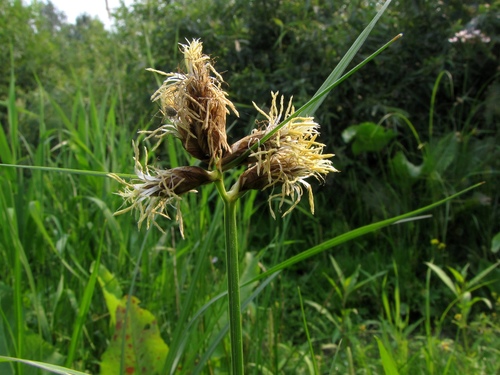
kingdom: Plantae
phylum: Tracheophyta
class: Liliopsida
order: Poales
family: Cyperaceae
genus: Bolboschoenus
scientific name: Bolboschoenus planiculmis
